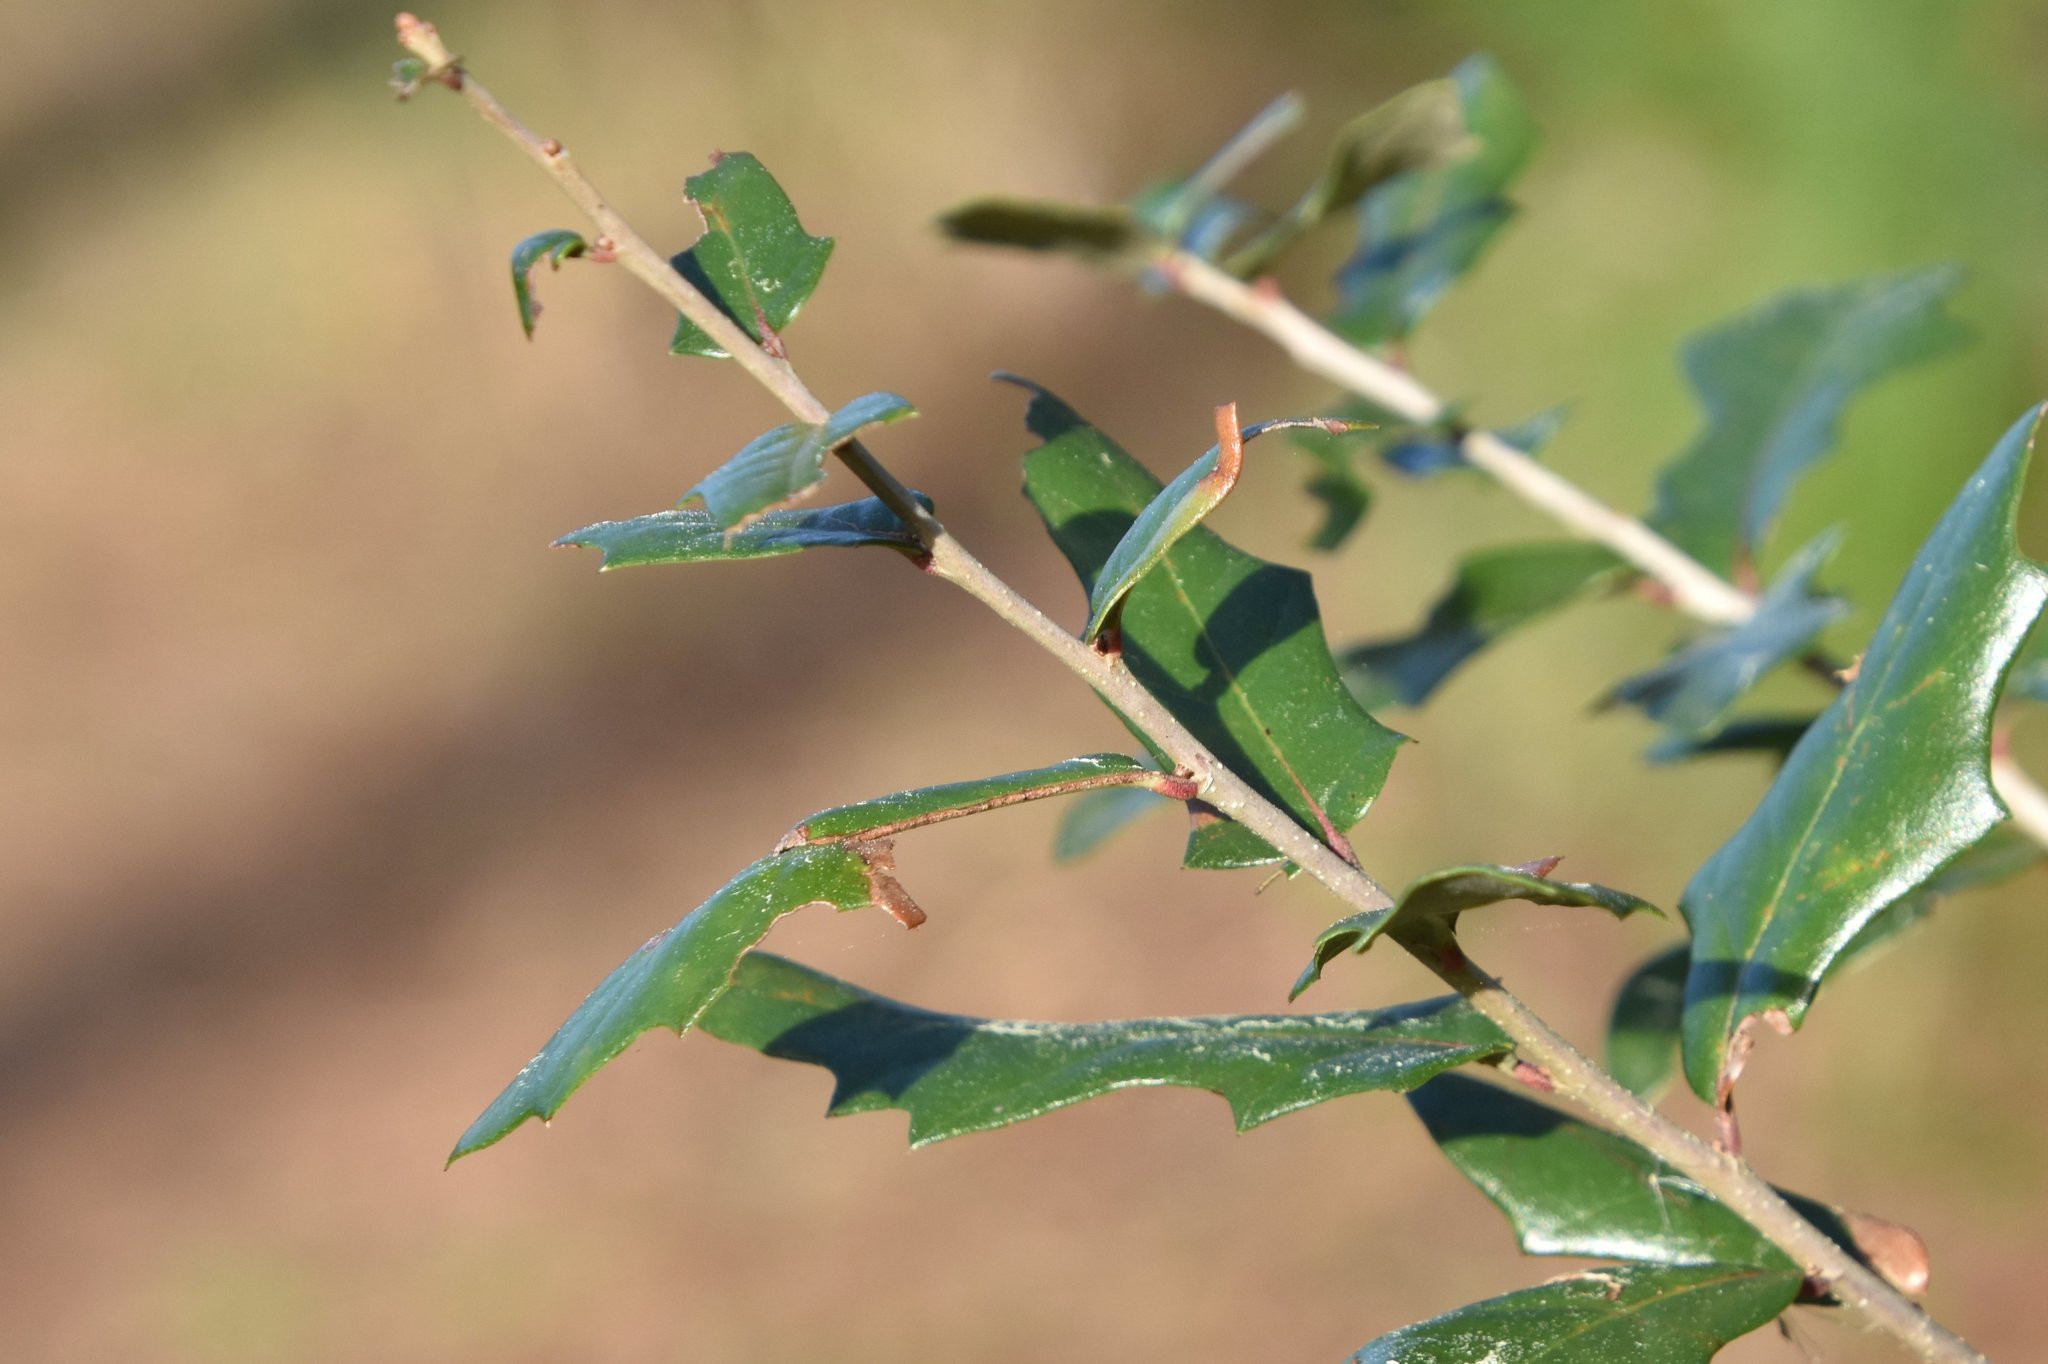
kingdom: Plantae
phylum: Tracheophyta
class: Magnoliopsida
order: Fagales
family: Fagaceae
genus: Quercus
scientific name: Quercus virginiana
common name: Southern live oak
